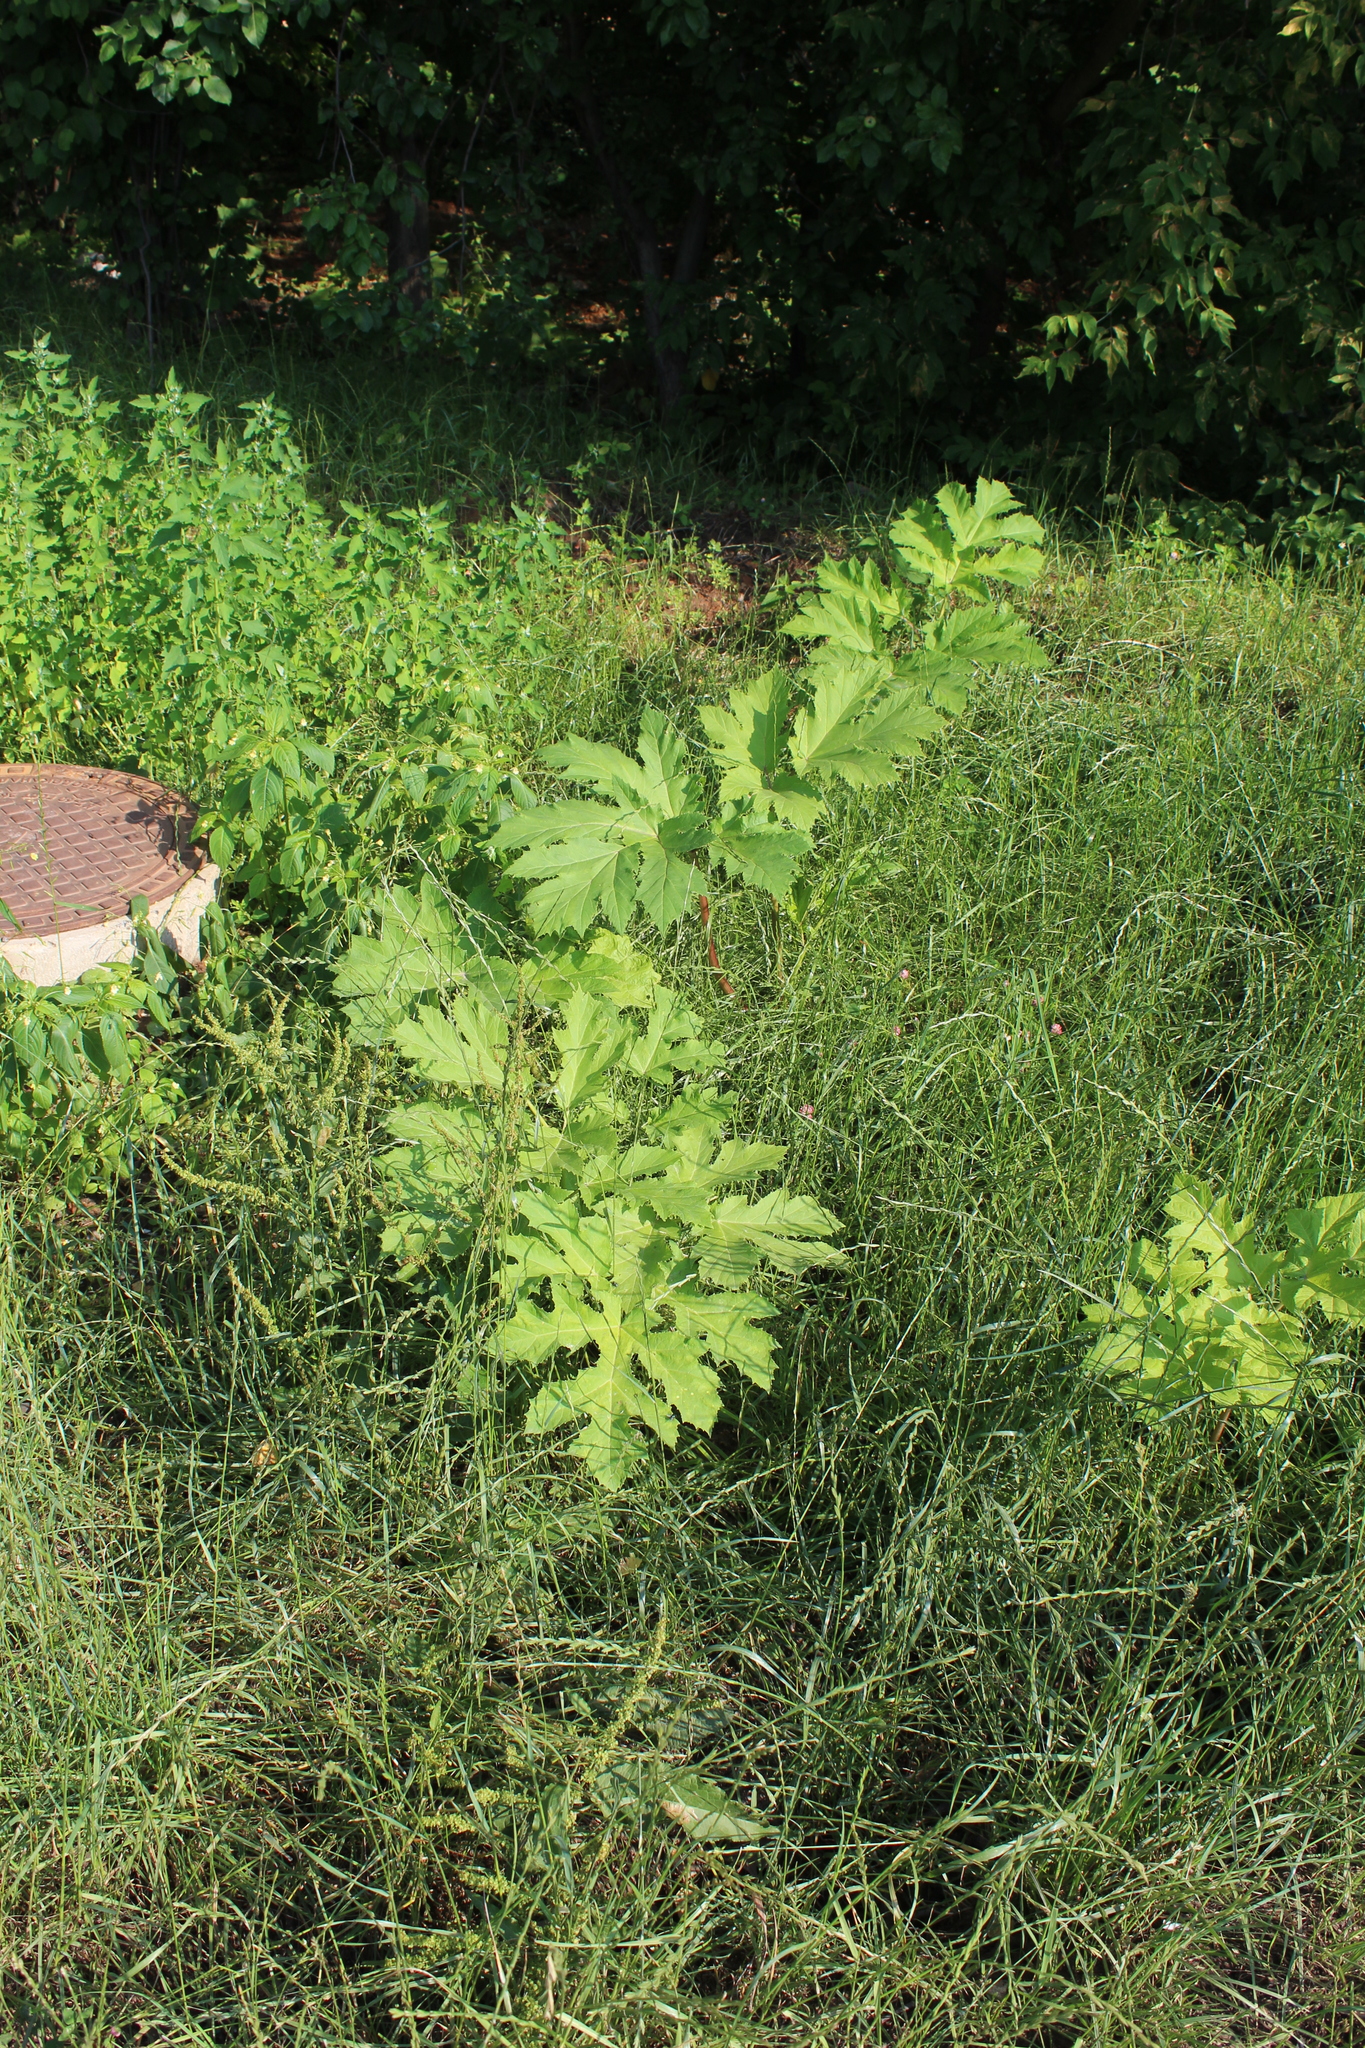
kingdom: Plantae
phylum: Tracheophyta
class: Magnoliopsida
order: Apiales
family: Apiaceae
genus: Heracleum
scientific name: Heracleum sosnowskyi
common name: Sosnowsky's hogweed
